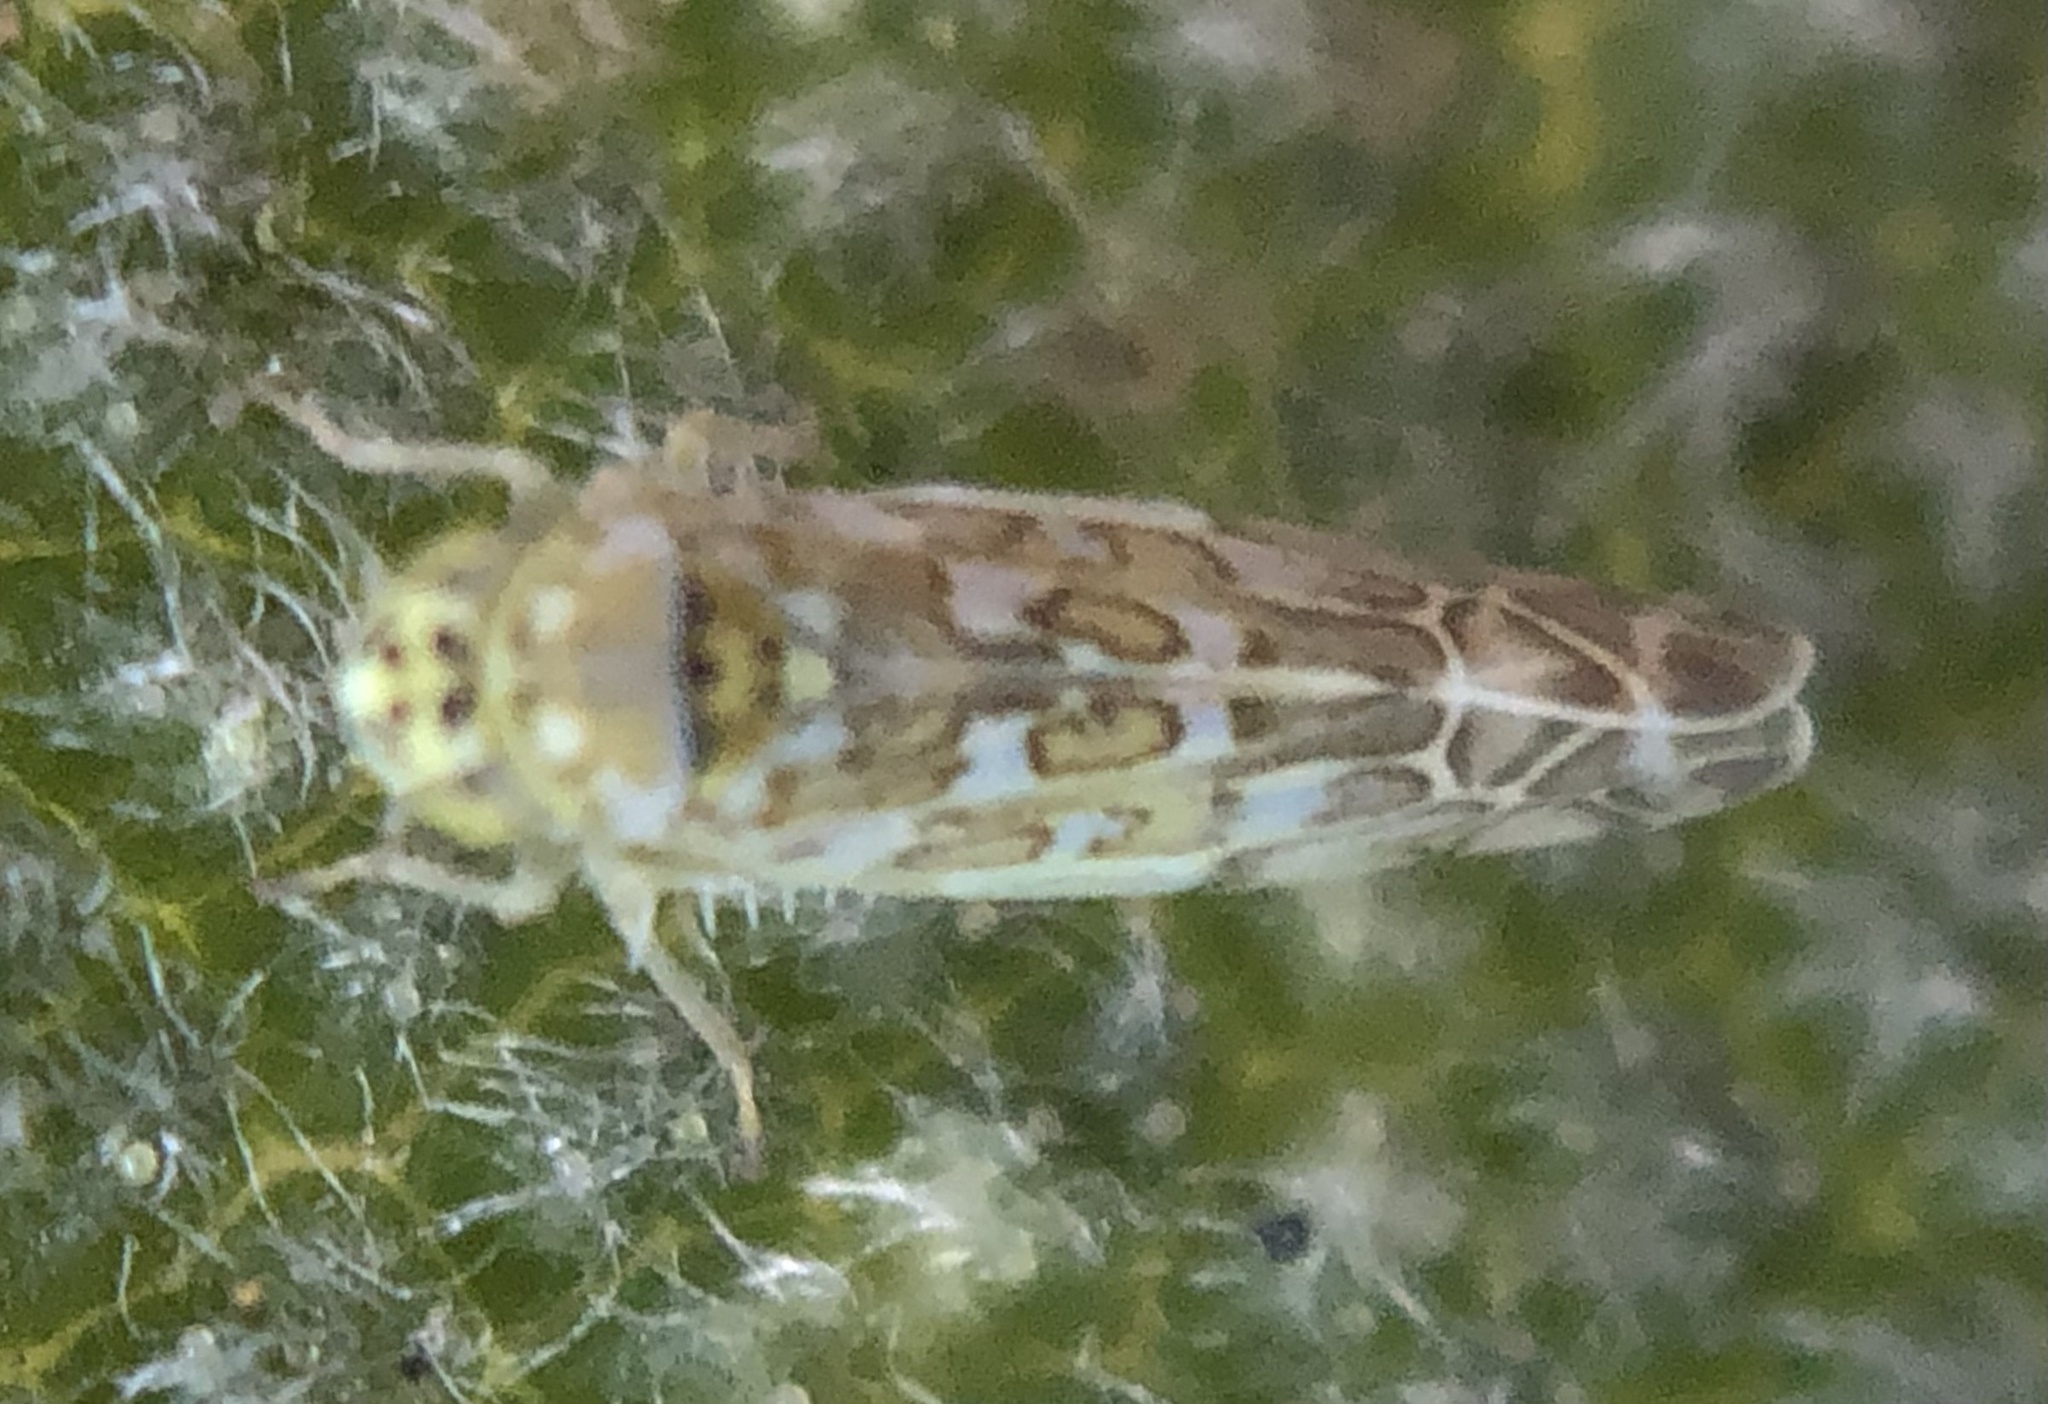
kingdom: Animalia
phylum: Arthropoda
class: Insecta
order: Hemiptera
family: Cicadellidae
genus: Eupteryx
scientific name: Eupteryx decemnotata
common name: Ligurian leafhopper
